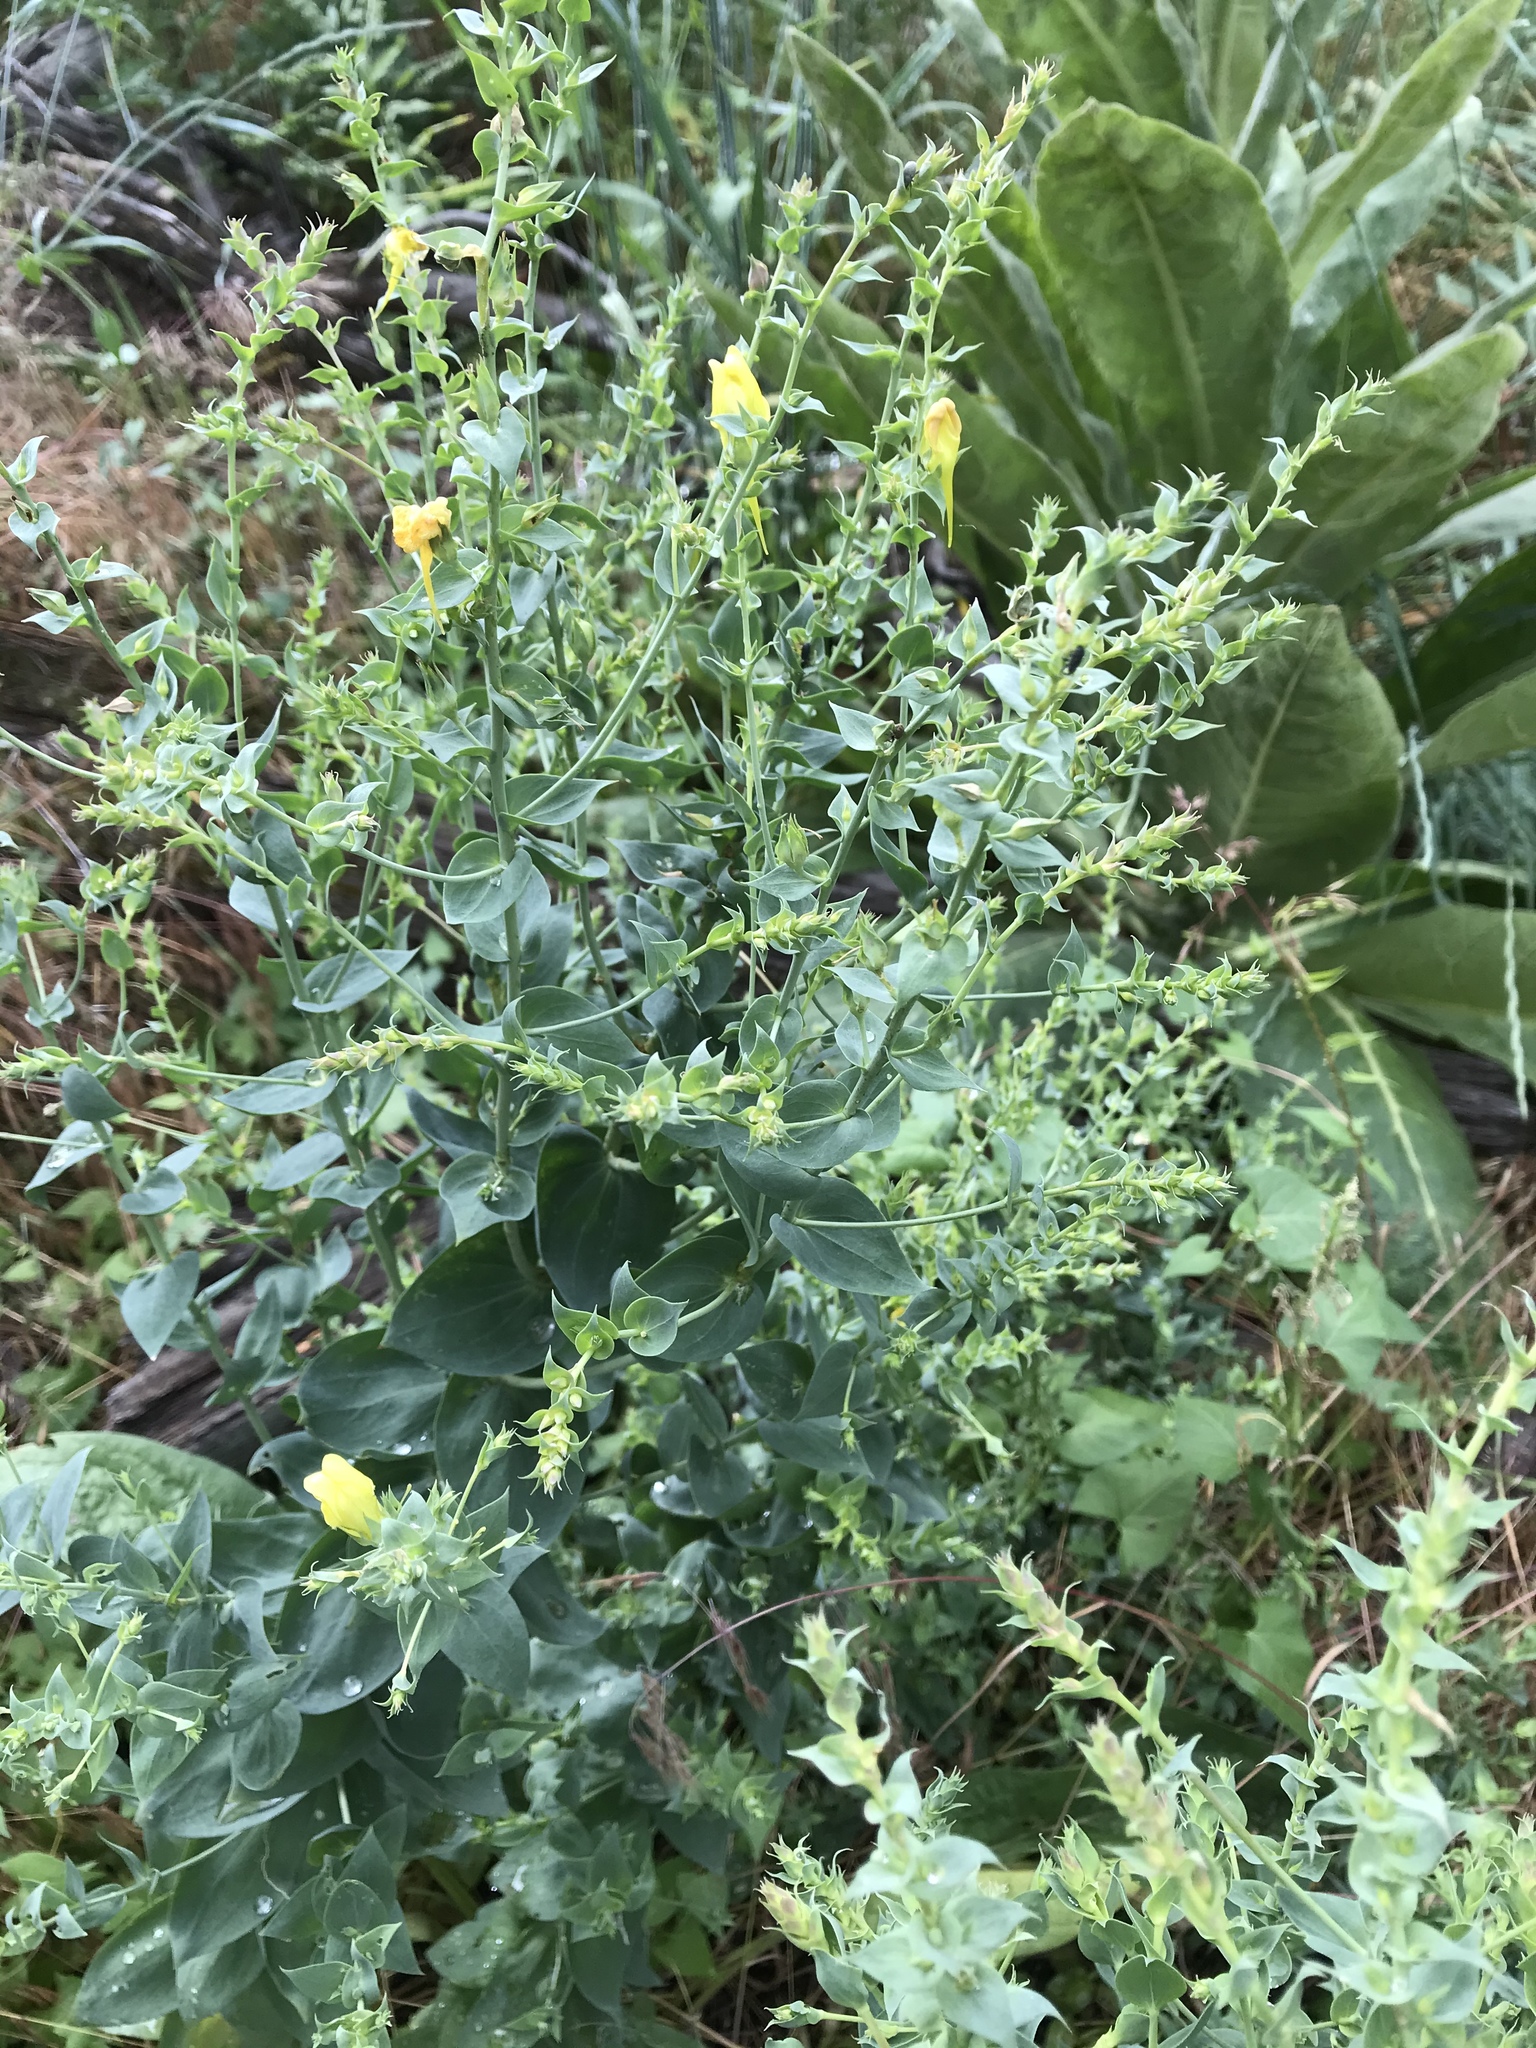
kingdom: Plantae
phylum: Tracheophyta
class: Magnoliopsida
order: Lamiales
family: Plantaginaceae
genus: Linaria
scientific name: Linaria dalmatica
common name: Dalmatian toadflax
